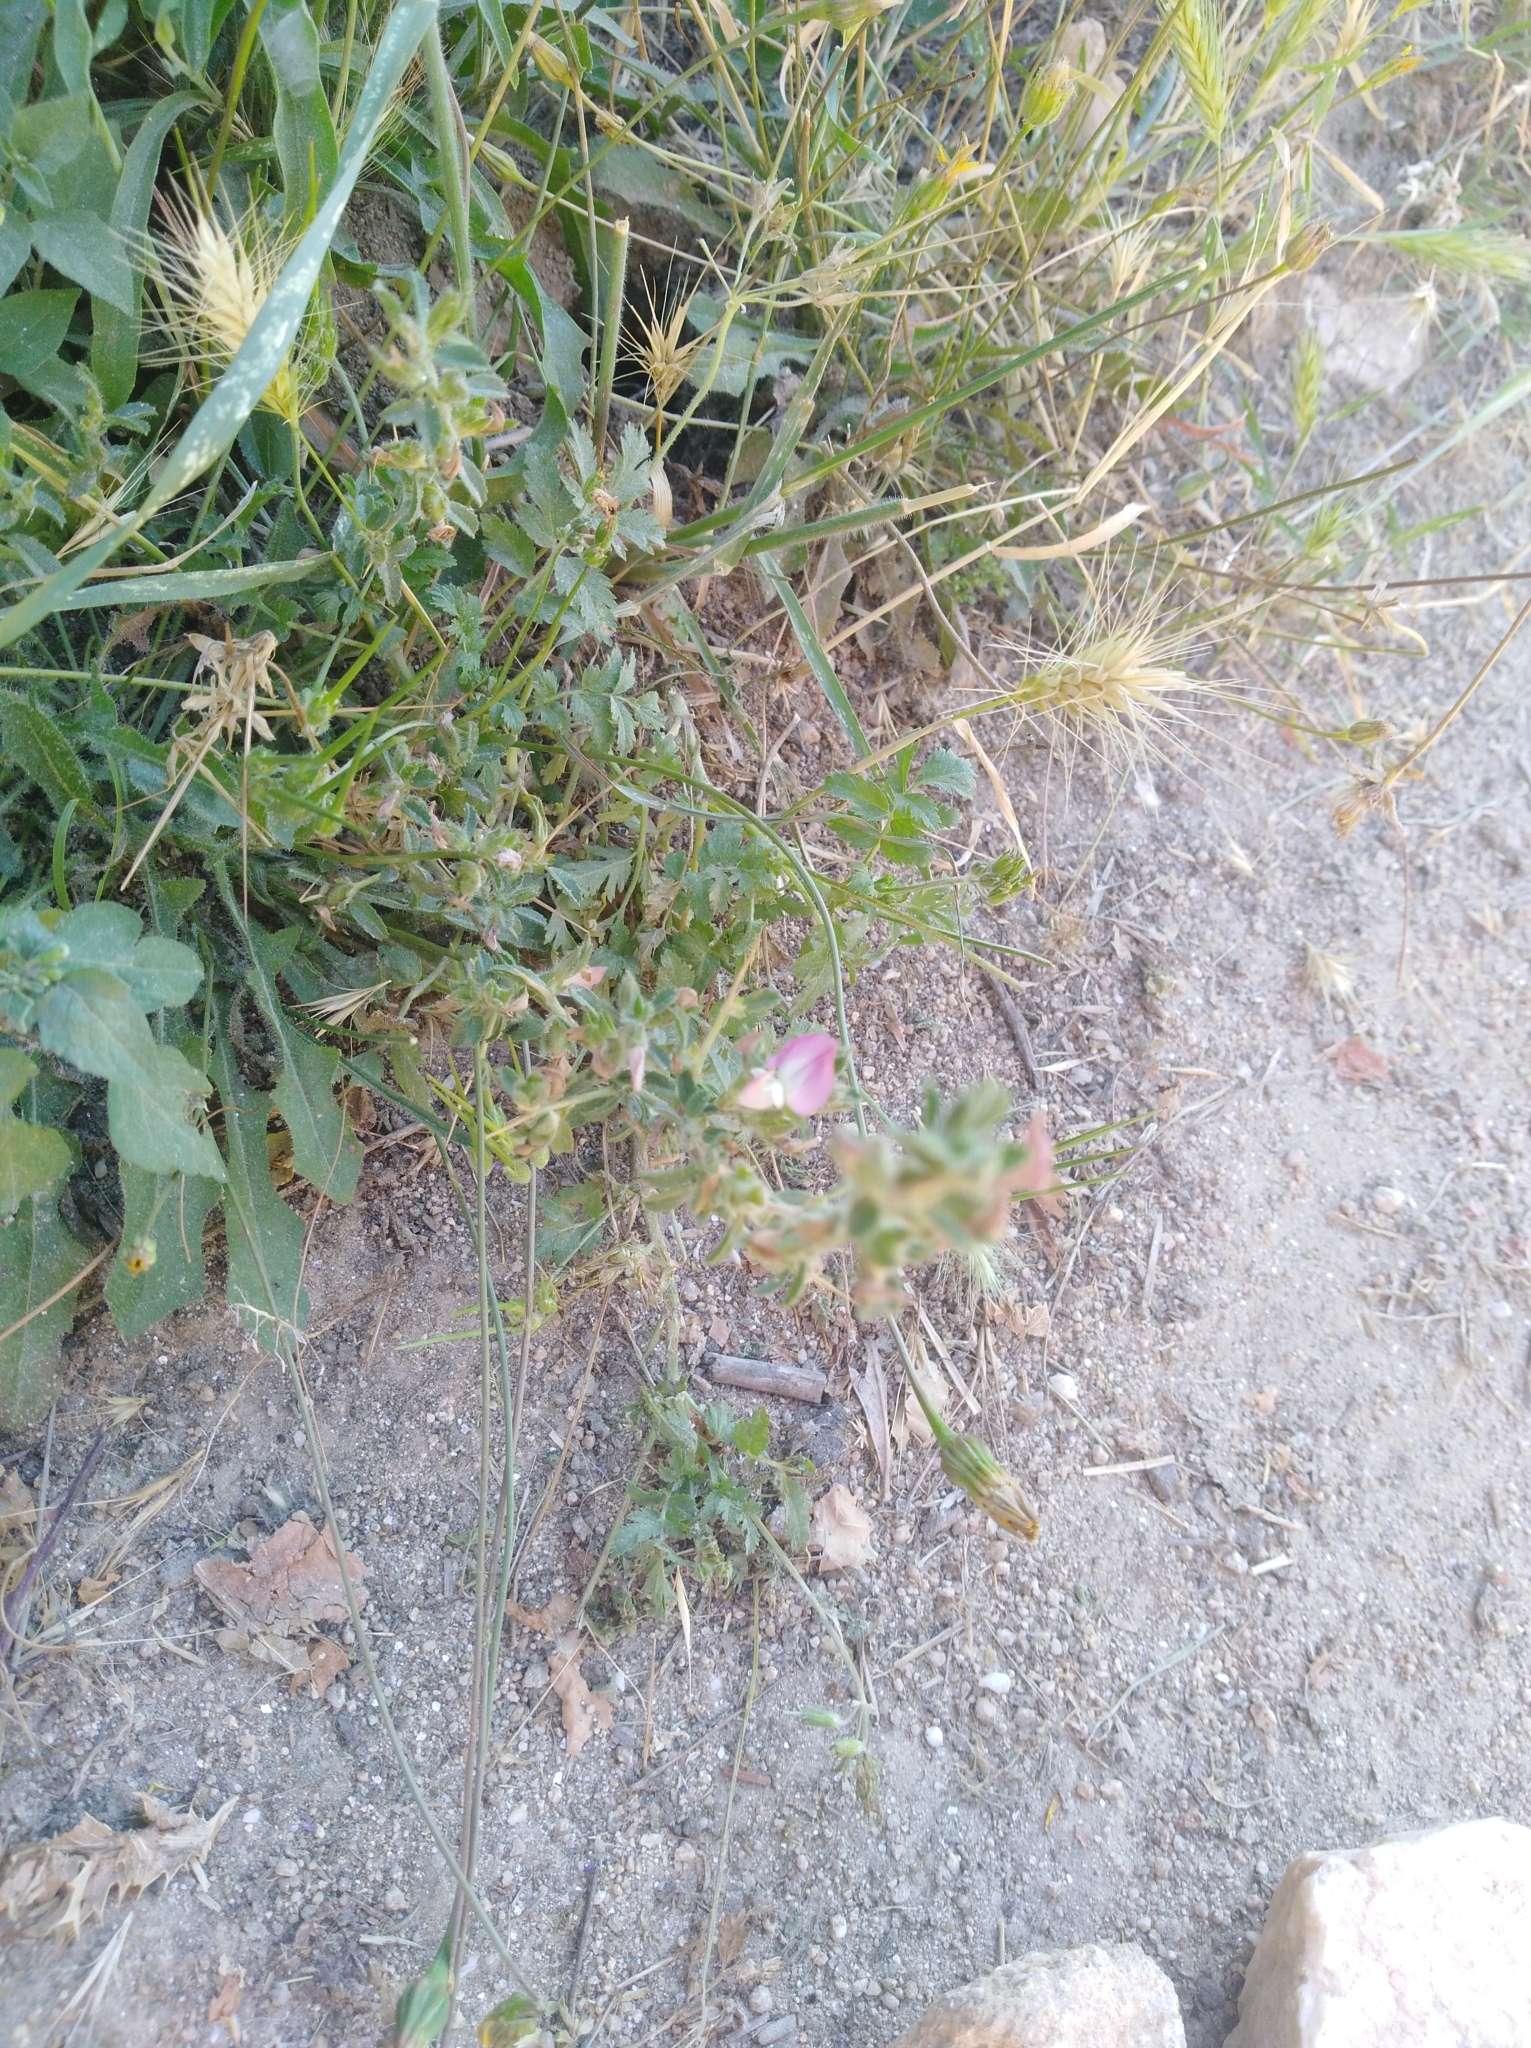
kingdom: Plantae
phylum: Tracheophyta
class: Magnoliopsida
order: Fabales
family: Fabaceae
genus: Ononis
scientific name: Ononis spinosa
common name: Spiny restharrow
